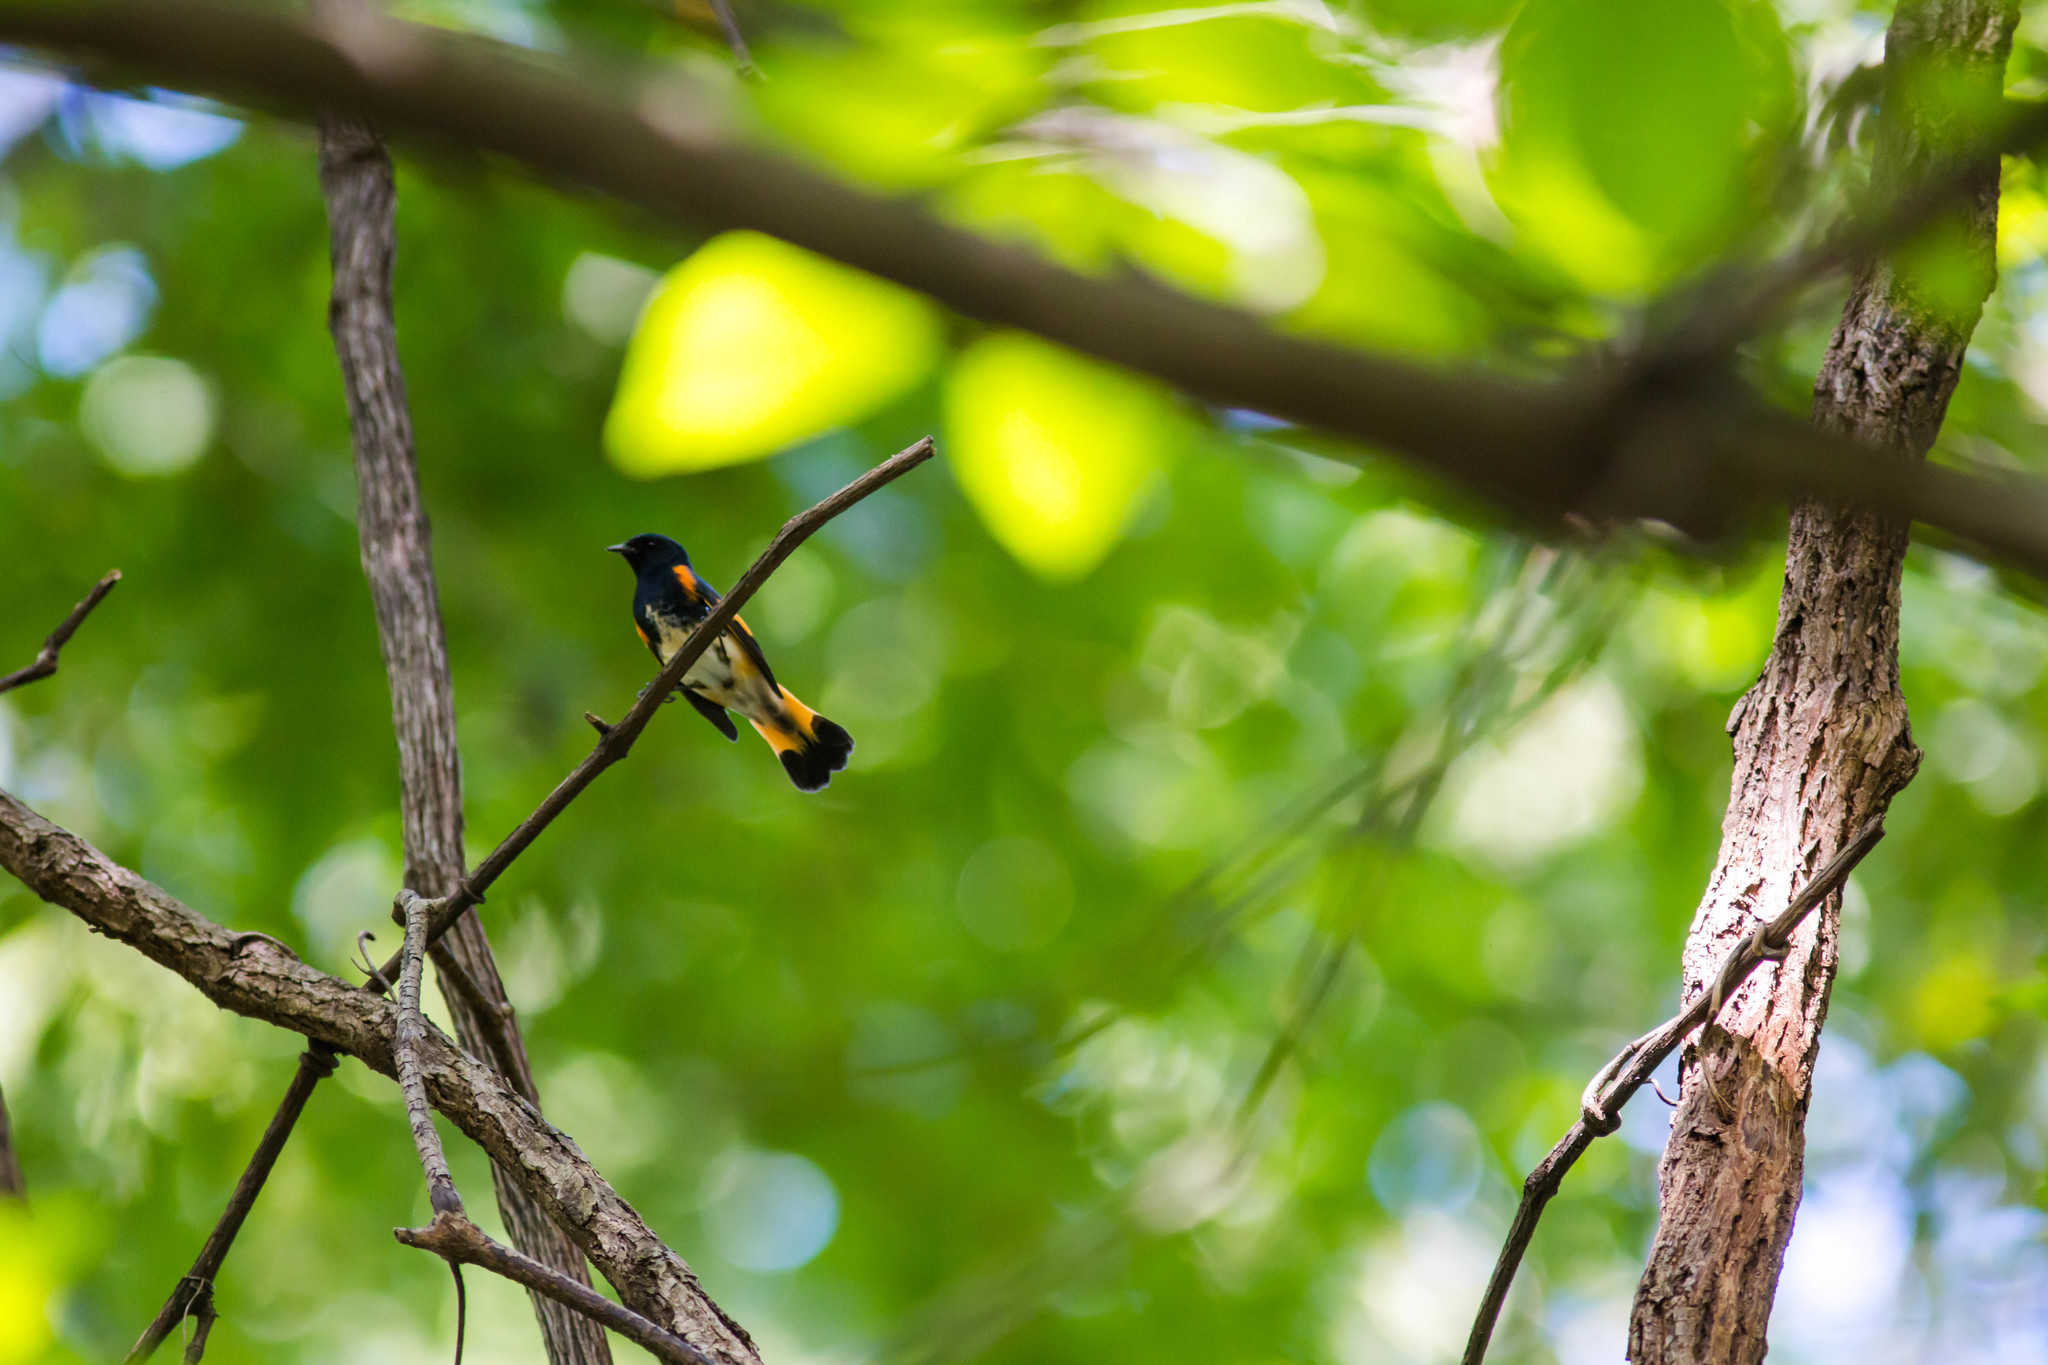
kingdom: Animalia
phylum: Chordata
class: Aves
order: Passeriformes
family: Parulidae
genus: Setophaga
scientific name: Setophaga ruticilla
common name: American redstart
